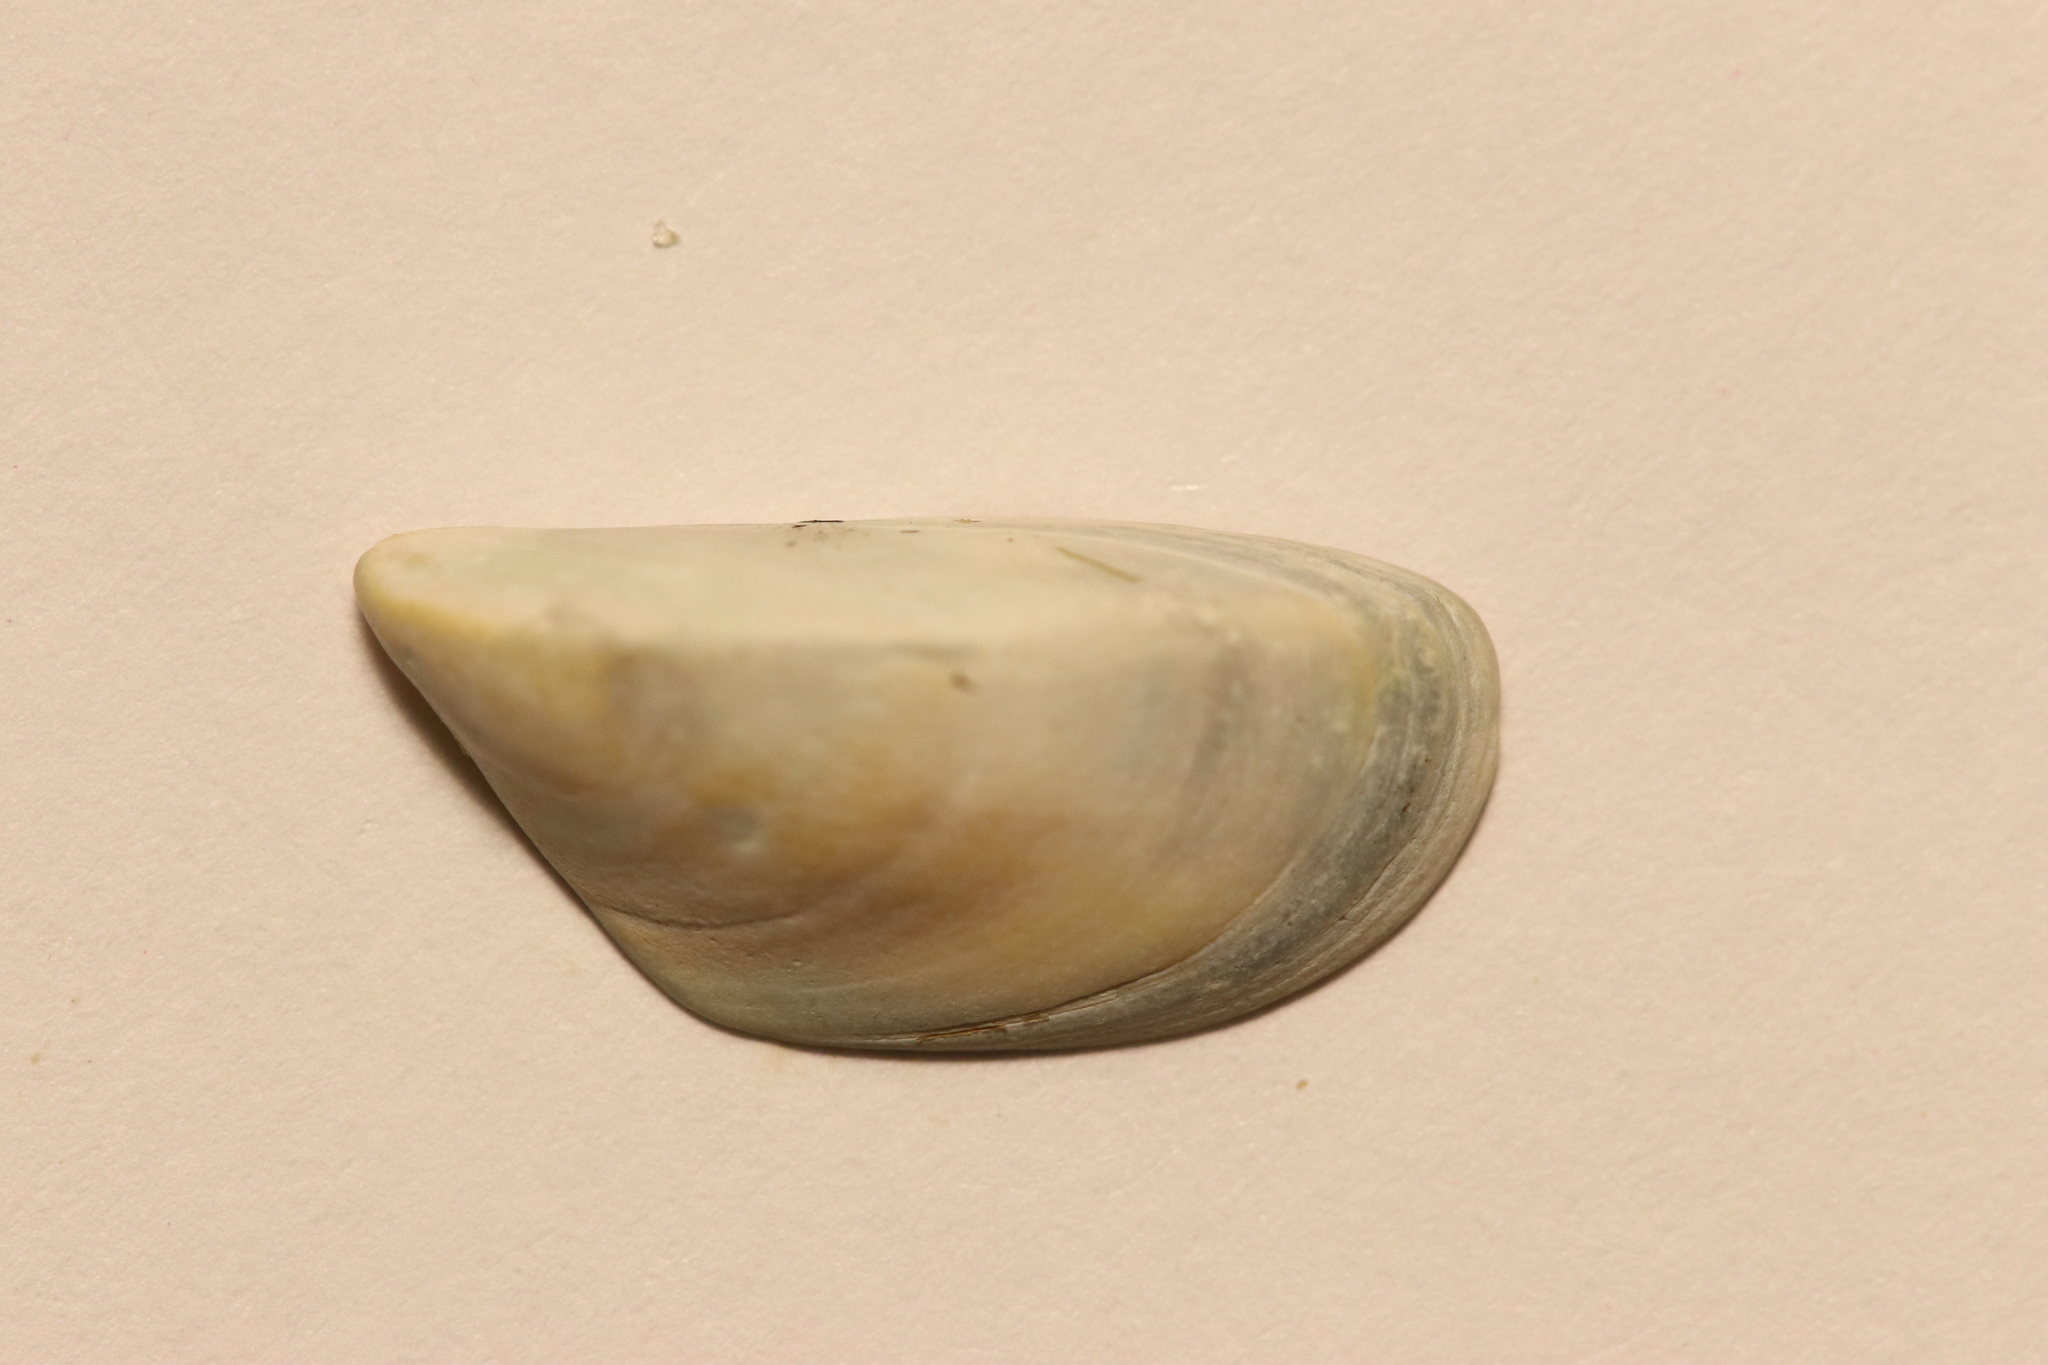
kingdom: Animalia
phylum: Mollusca
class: Bivalvia
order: Myida
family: Dreissenidae
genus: Dreissena
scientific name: Dreissena polymorpha
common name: Zebra mussel
